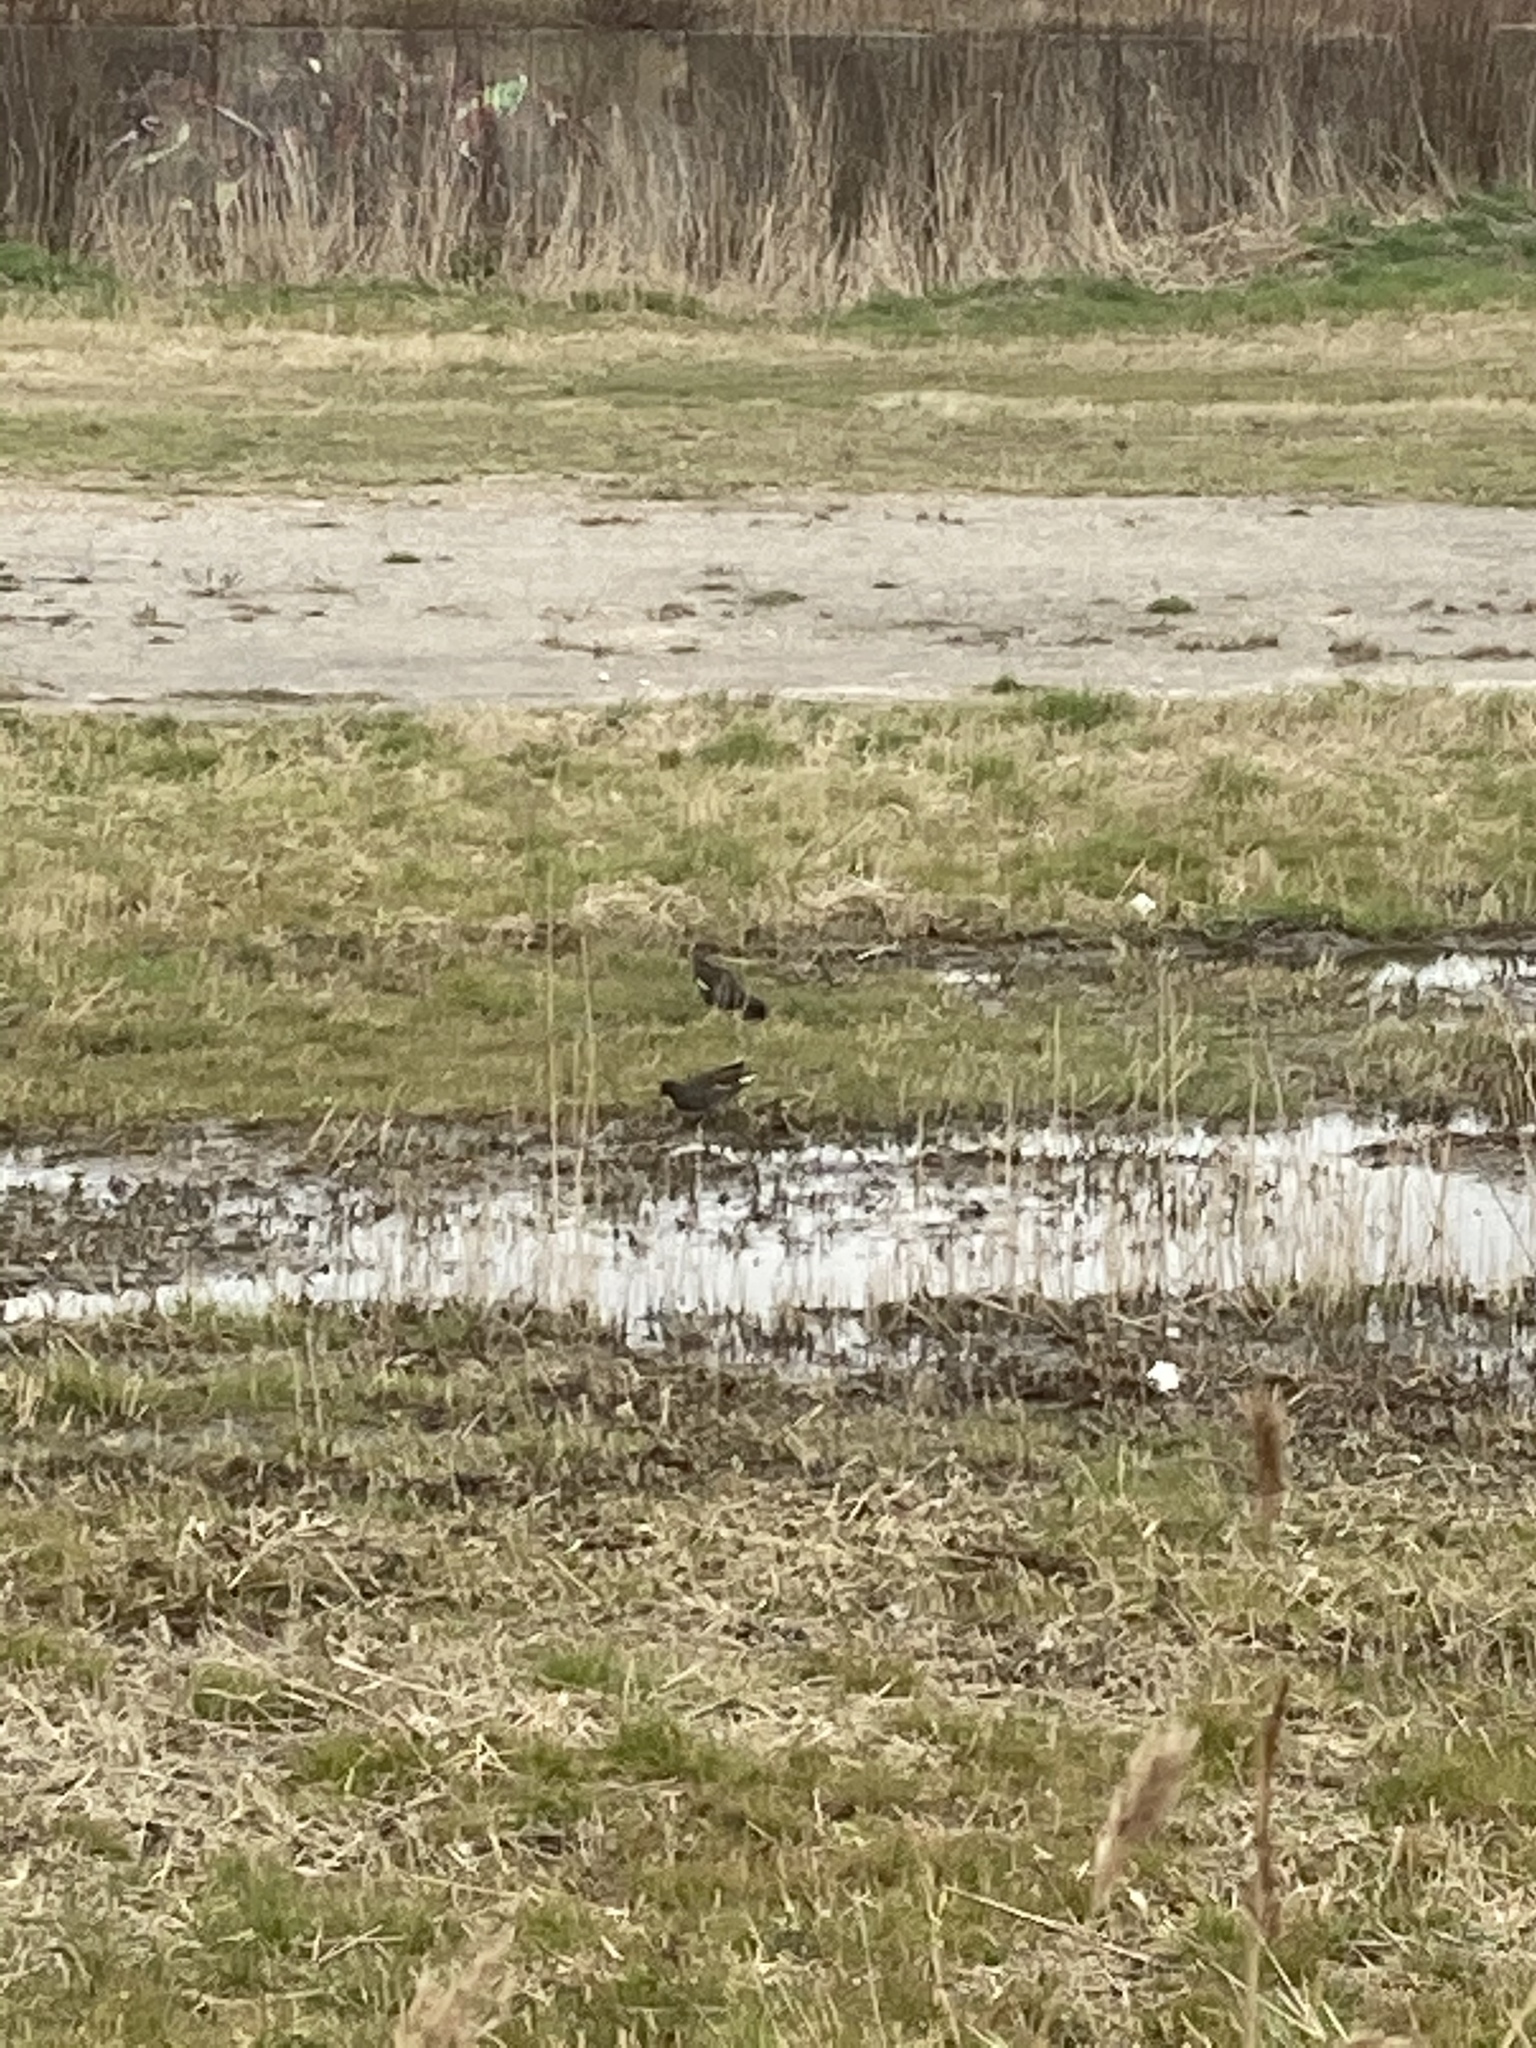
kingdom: Animalia
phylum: Chordata
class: Aves
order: Gruiformes
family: Rallidae
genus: Gallinula
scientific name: Gallinula chloropus
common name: Common moorhen
